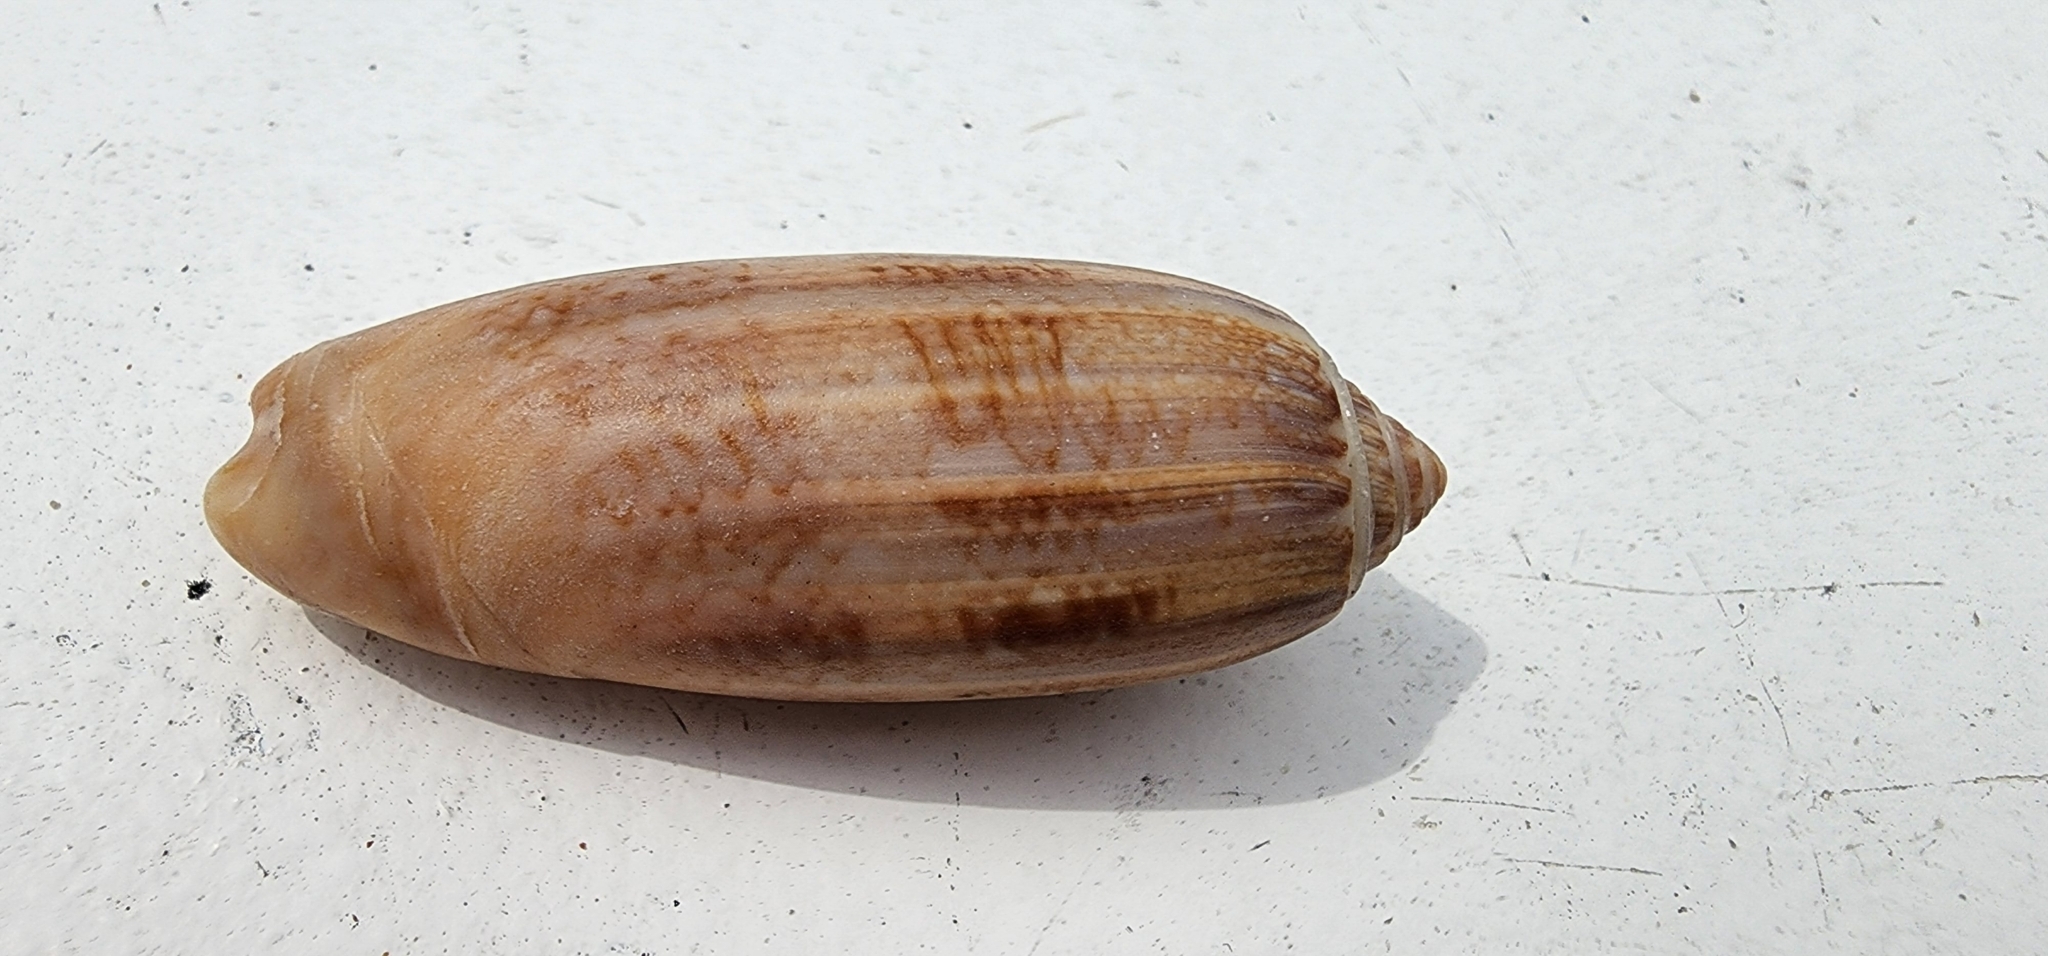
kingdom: Animalia
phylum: Mollusca
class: Gastropoda
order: Neogastropoda
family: Olividae
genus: Oliva
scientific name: Oliva sayana
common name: Lettered olive
